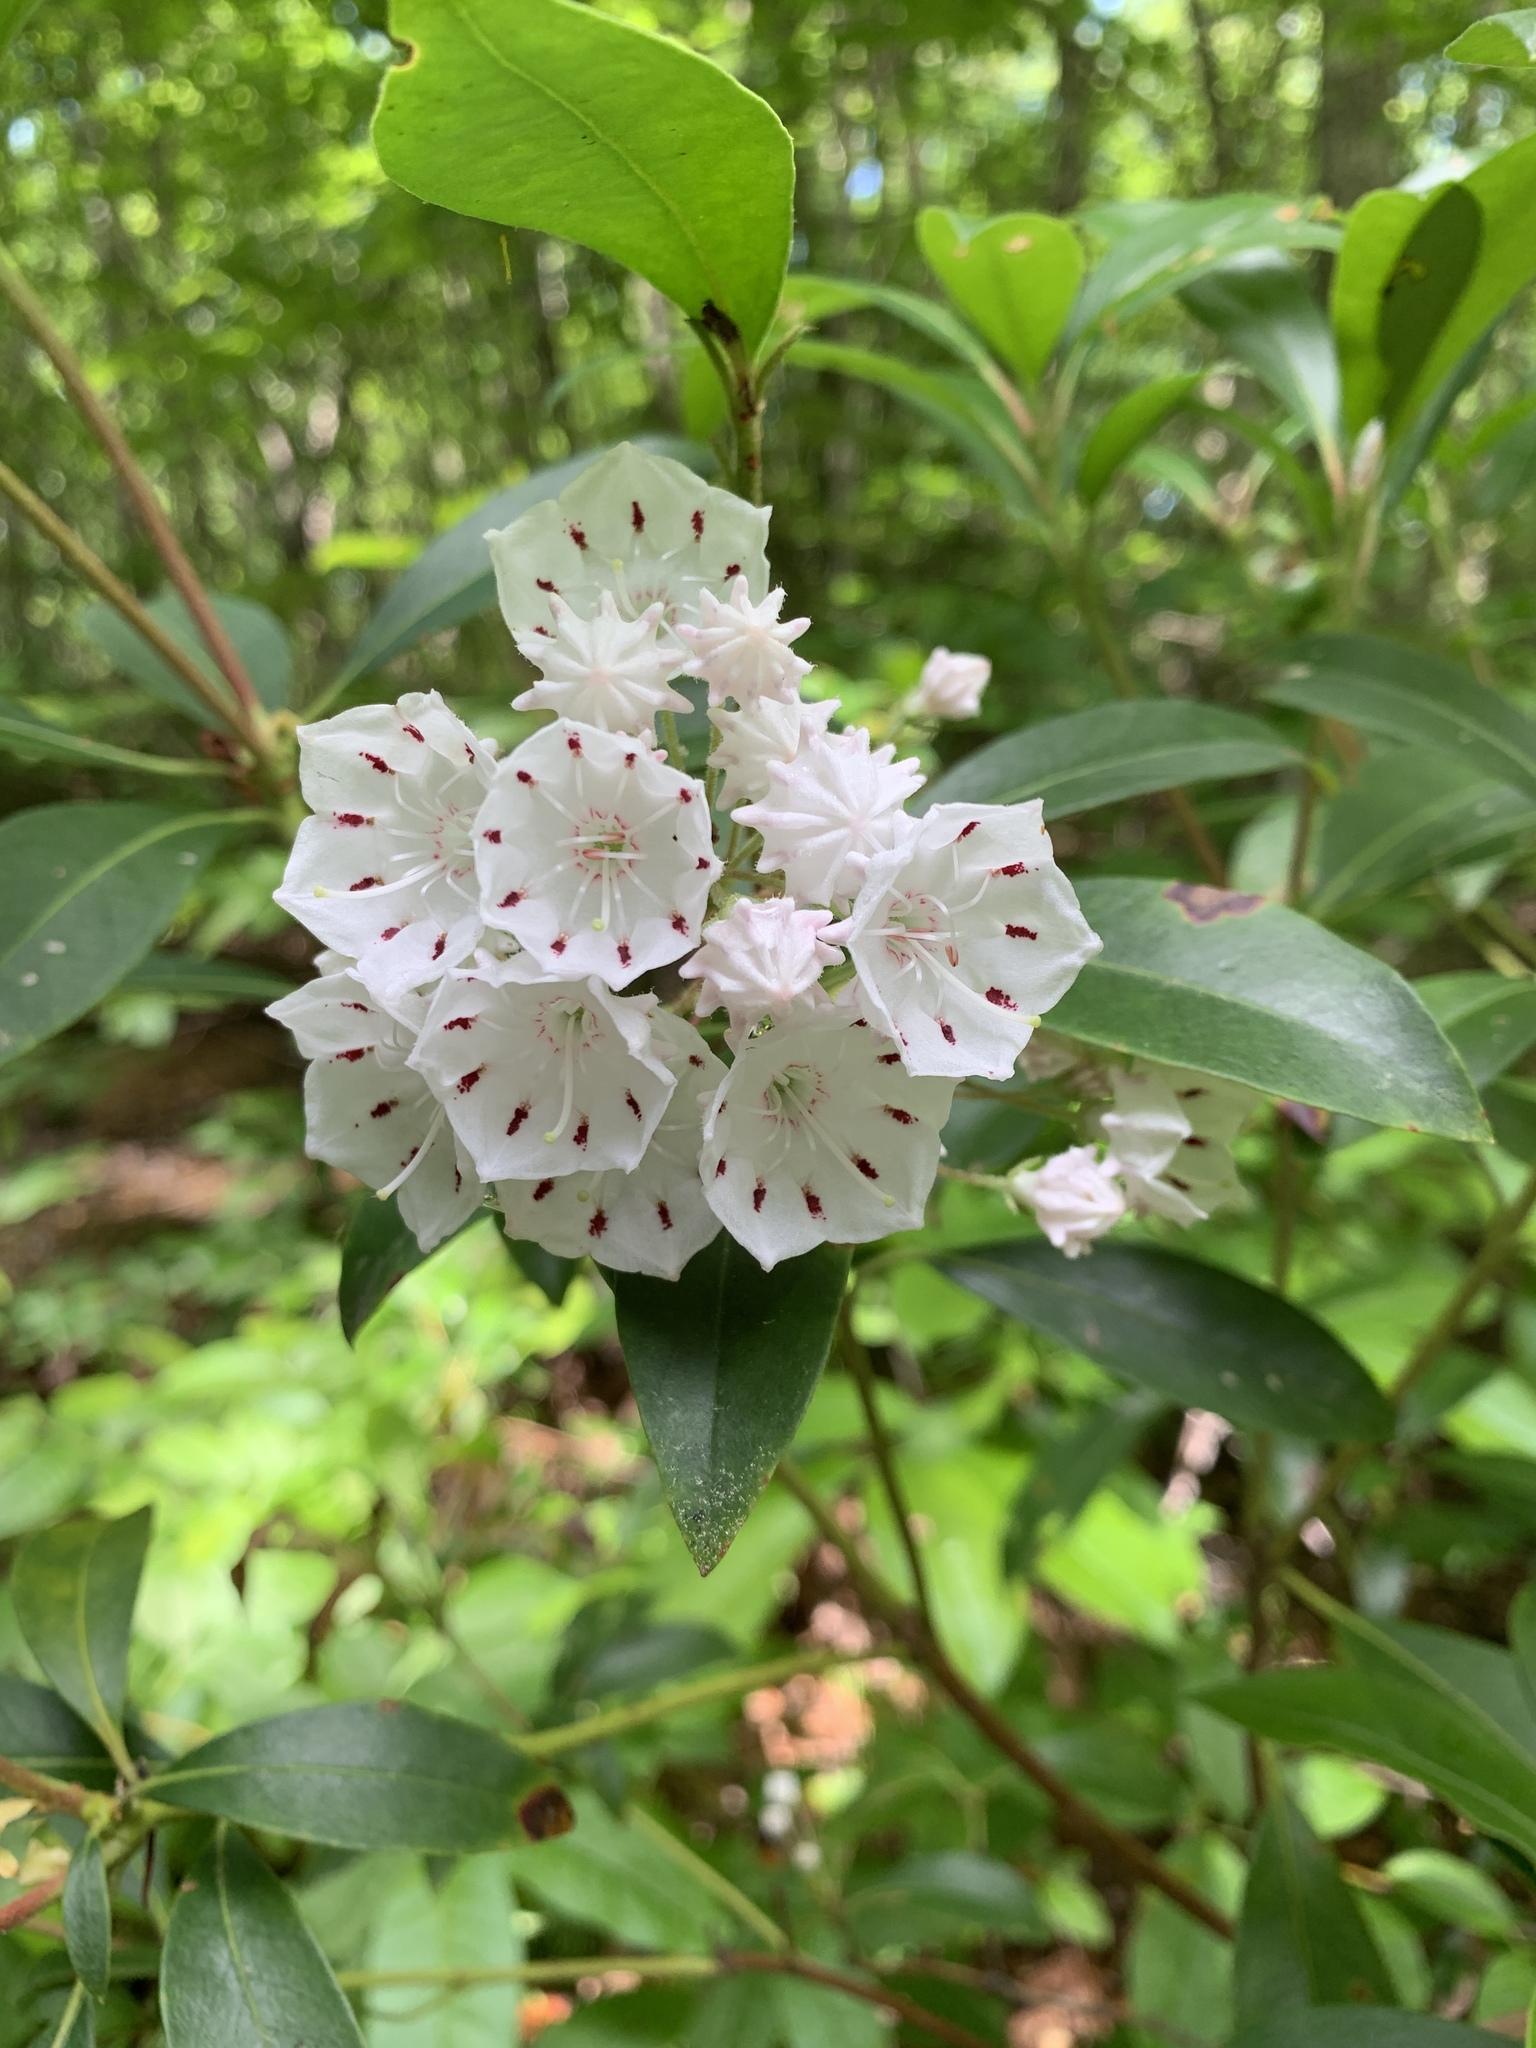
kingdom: Plantae
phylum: Tracheophyta
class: Magnoliopsida
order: Ericales
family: Ericaceae
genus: Kalmia
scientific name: Kalmia latifolia
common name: Mountain-laurel
